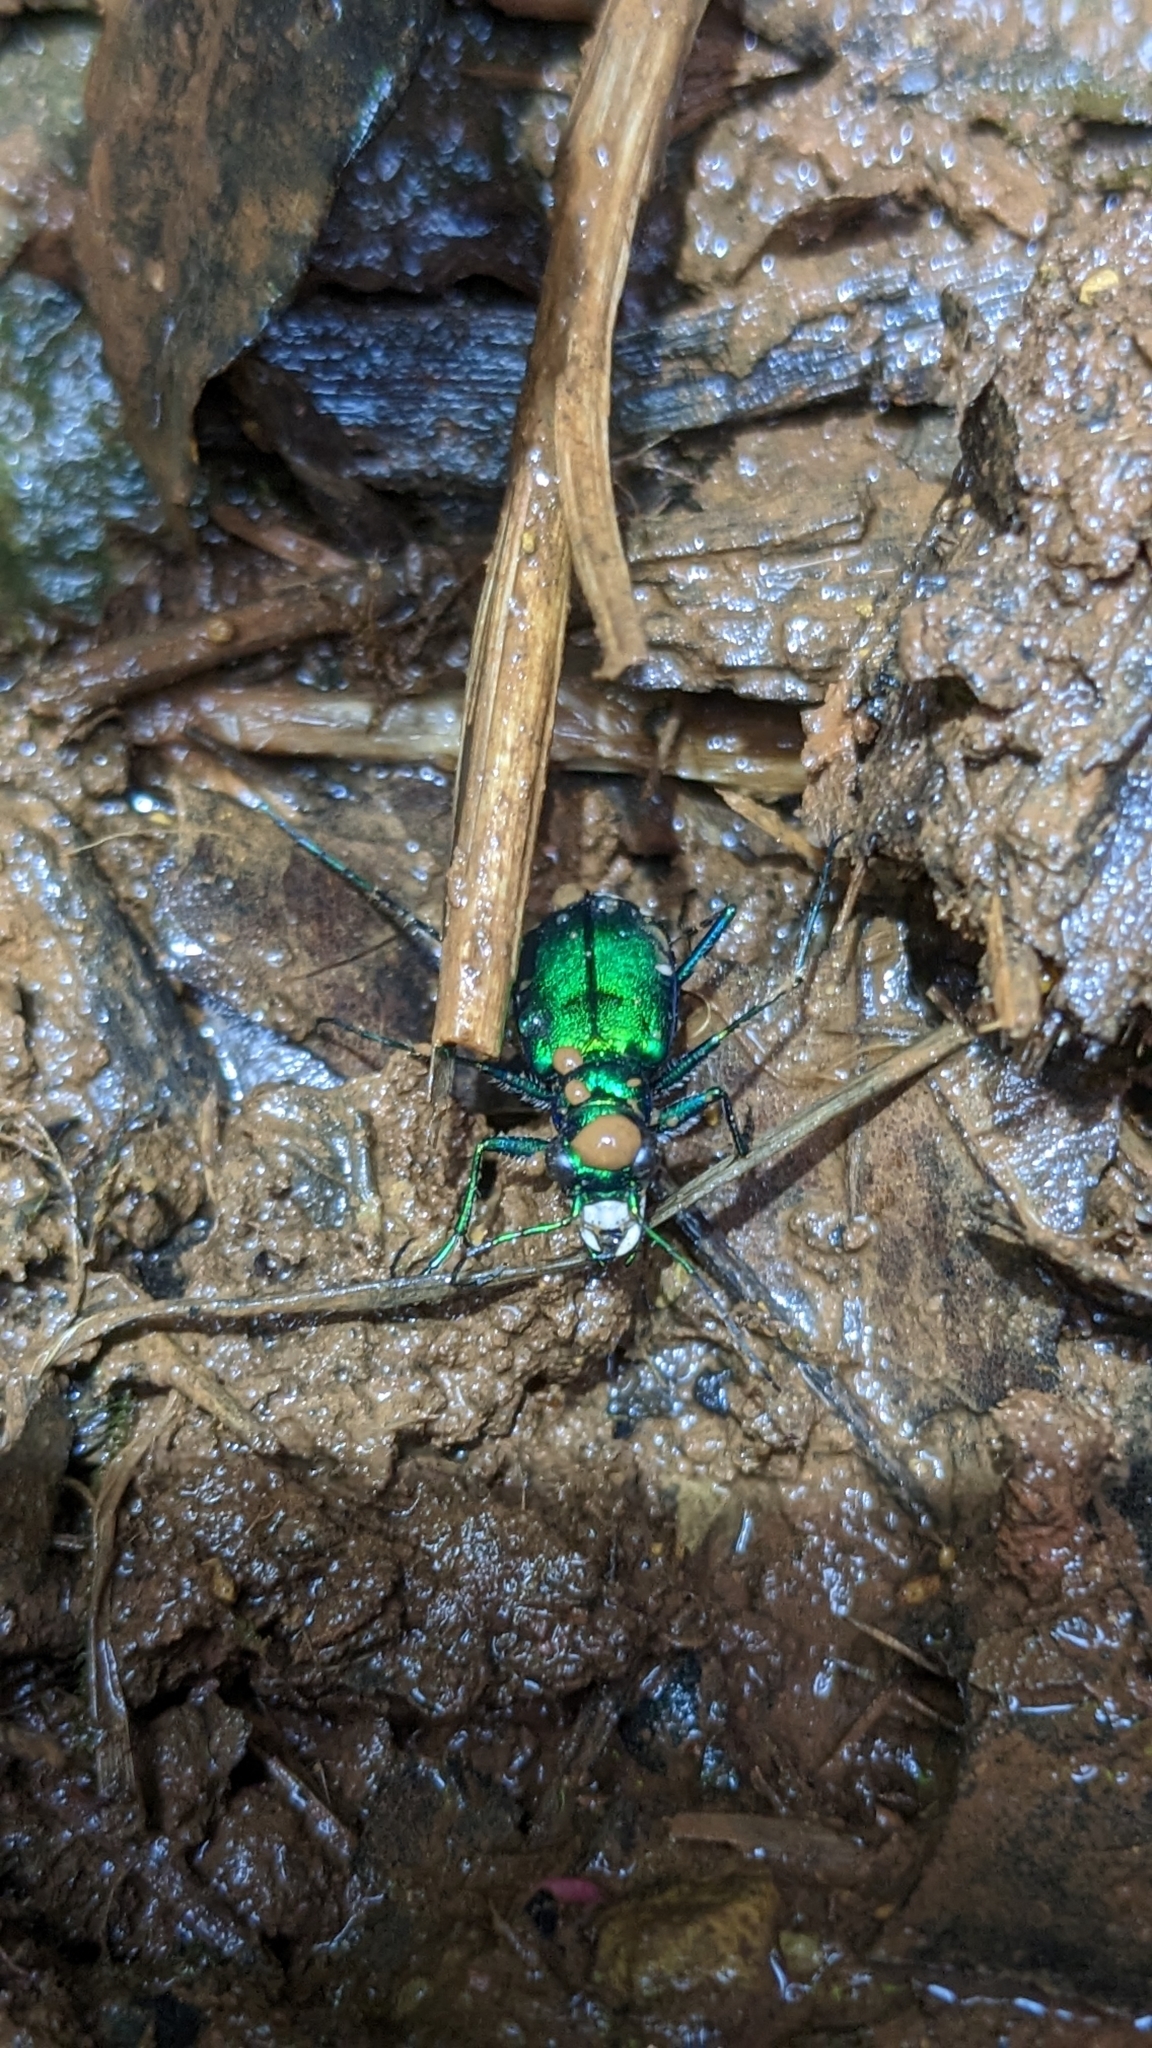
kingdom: Animalia
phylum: Arthropoda
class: Insecta
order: Coleoptera
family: Carabidae
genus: Cicindela
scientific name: Cicindela sexguttata
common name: Six-spotted tiger beetle
